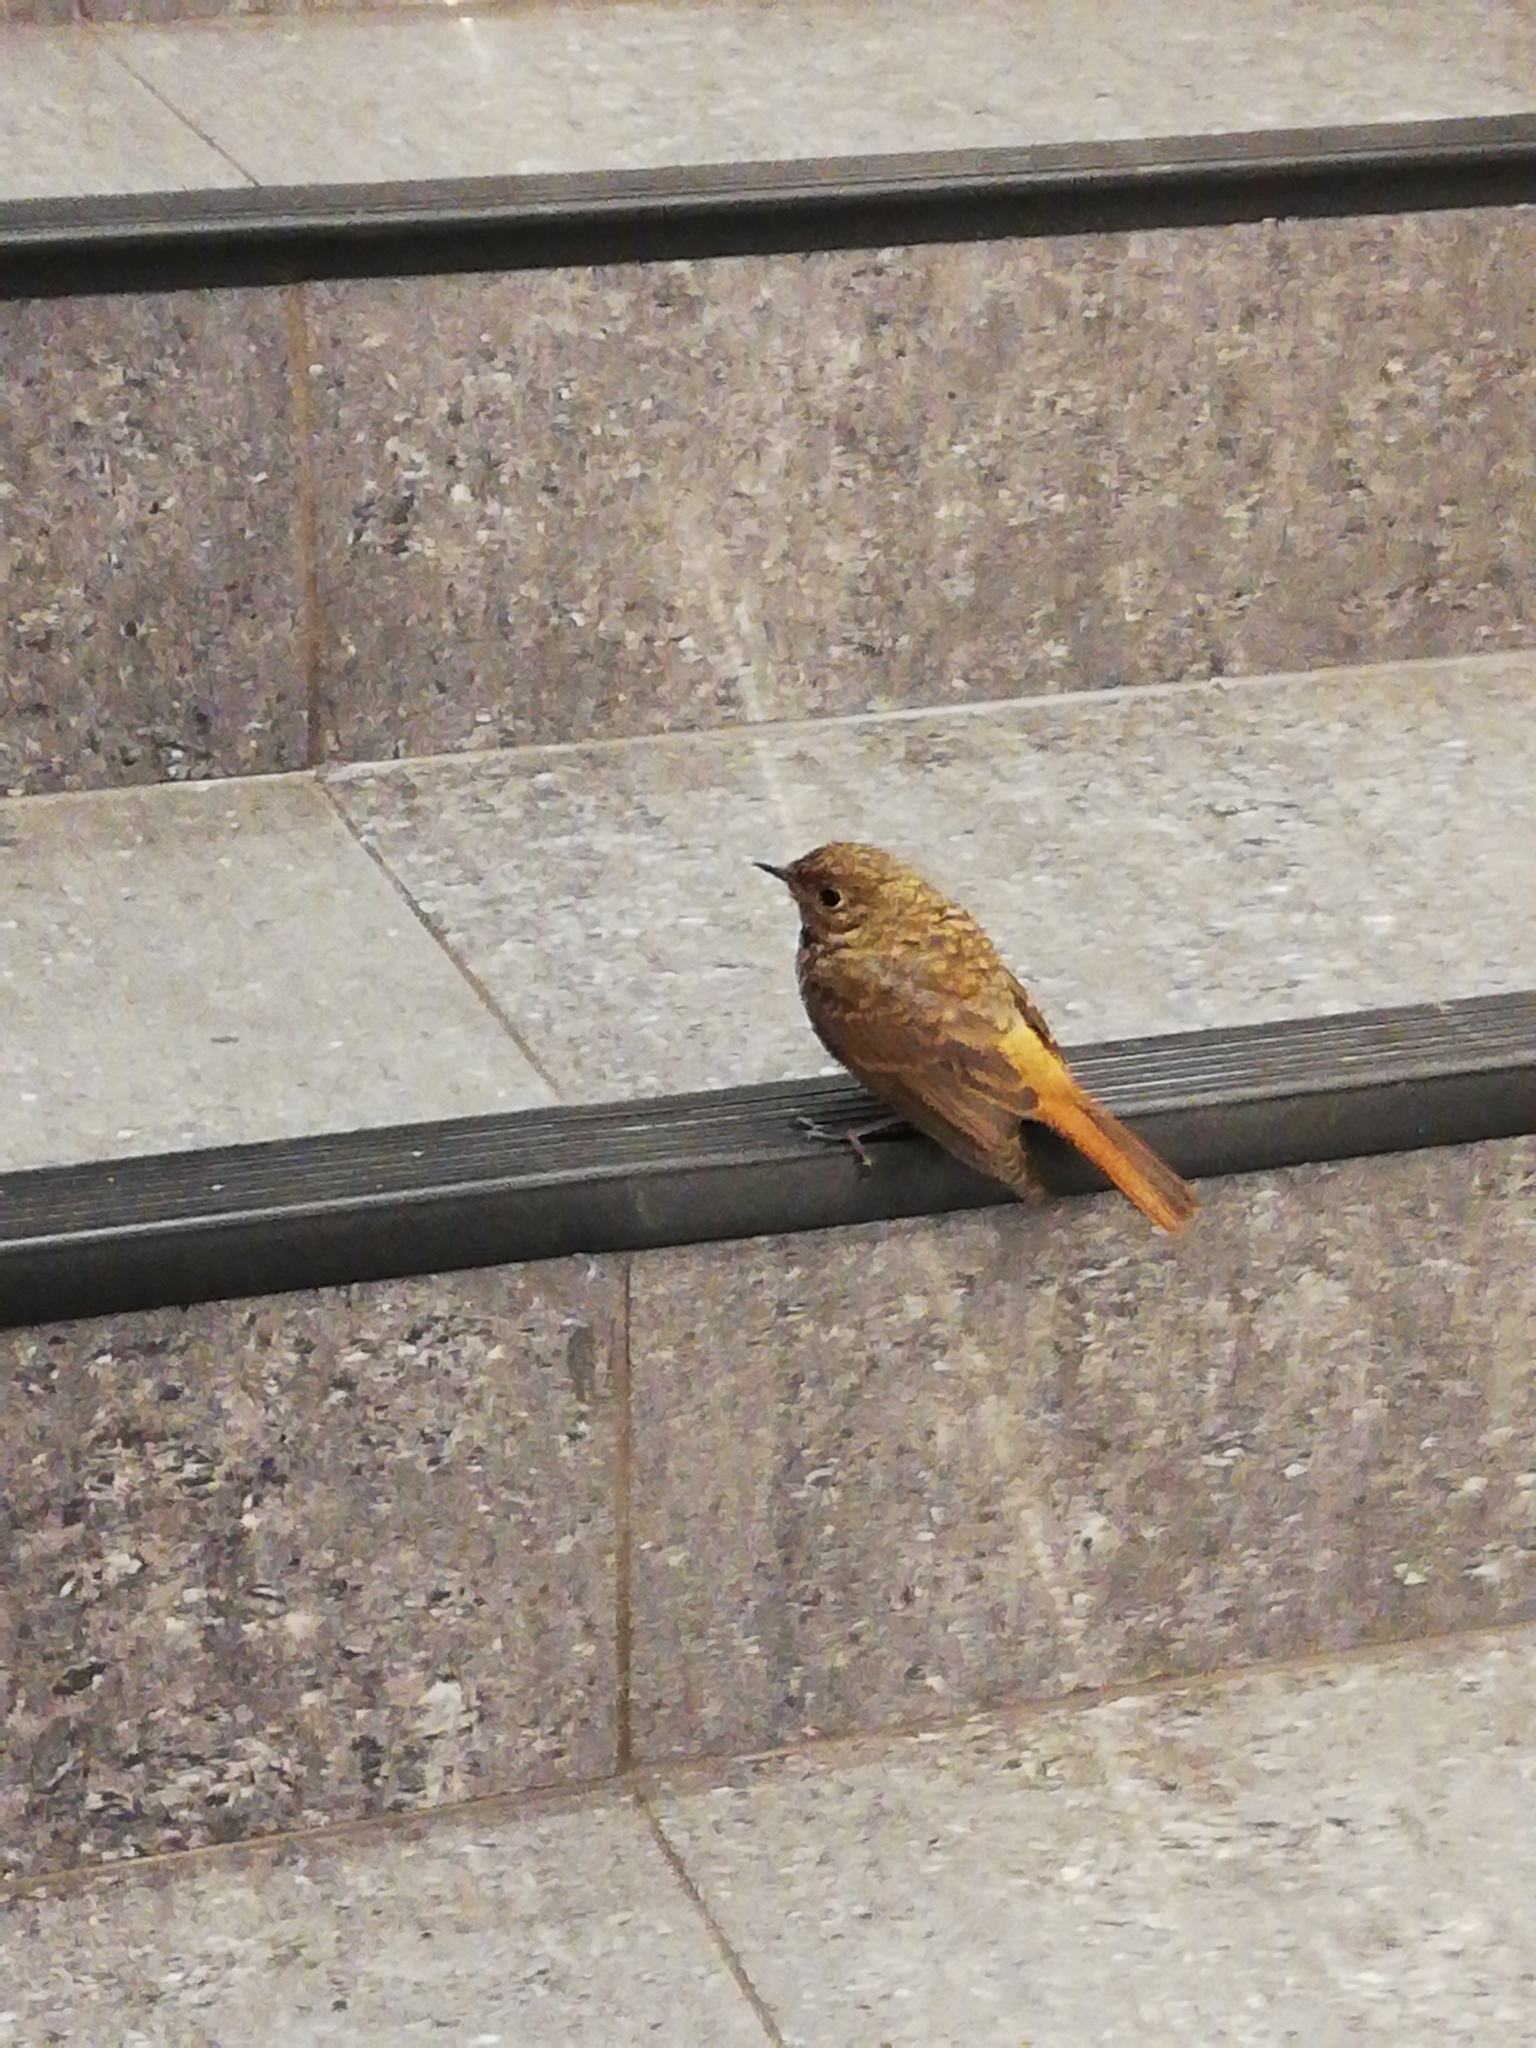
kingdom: Animalia
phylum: Chordata
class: Aves
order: Passeriformes
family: Muscicapidae
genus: Phoenicurus
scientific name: Phoenicurus phoenicurus
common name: Common redstart
